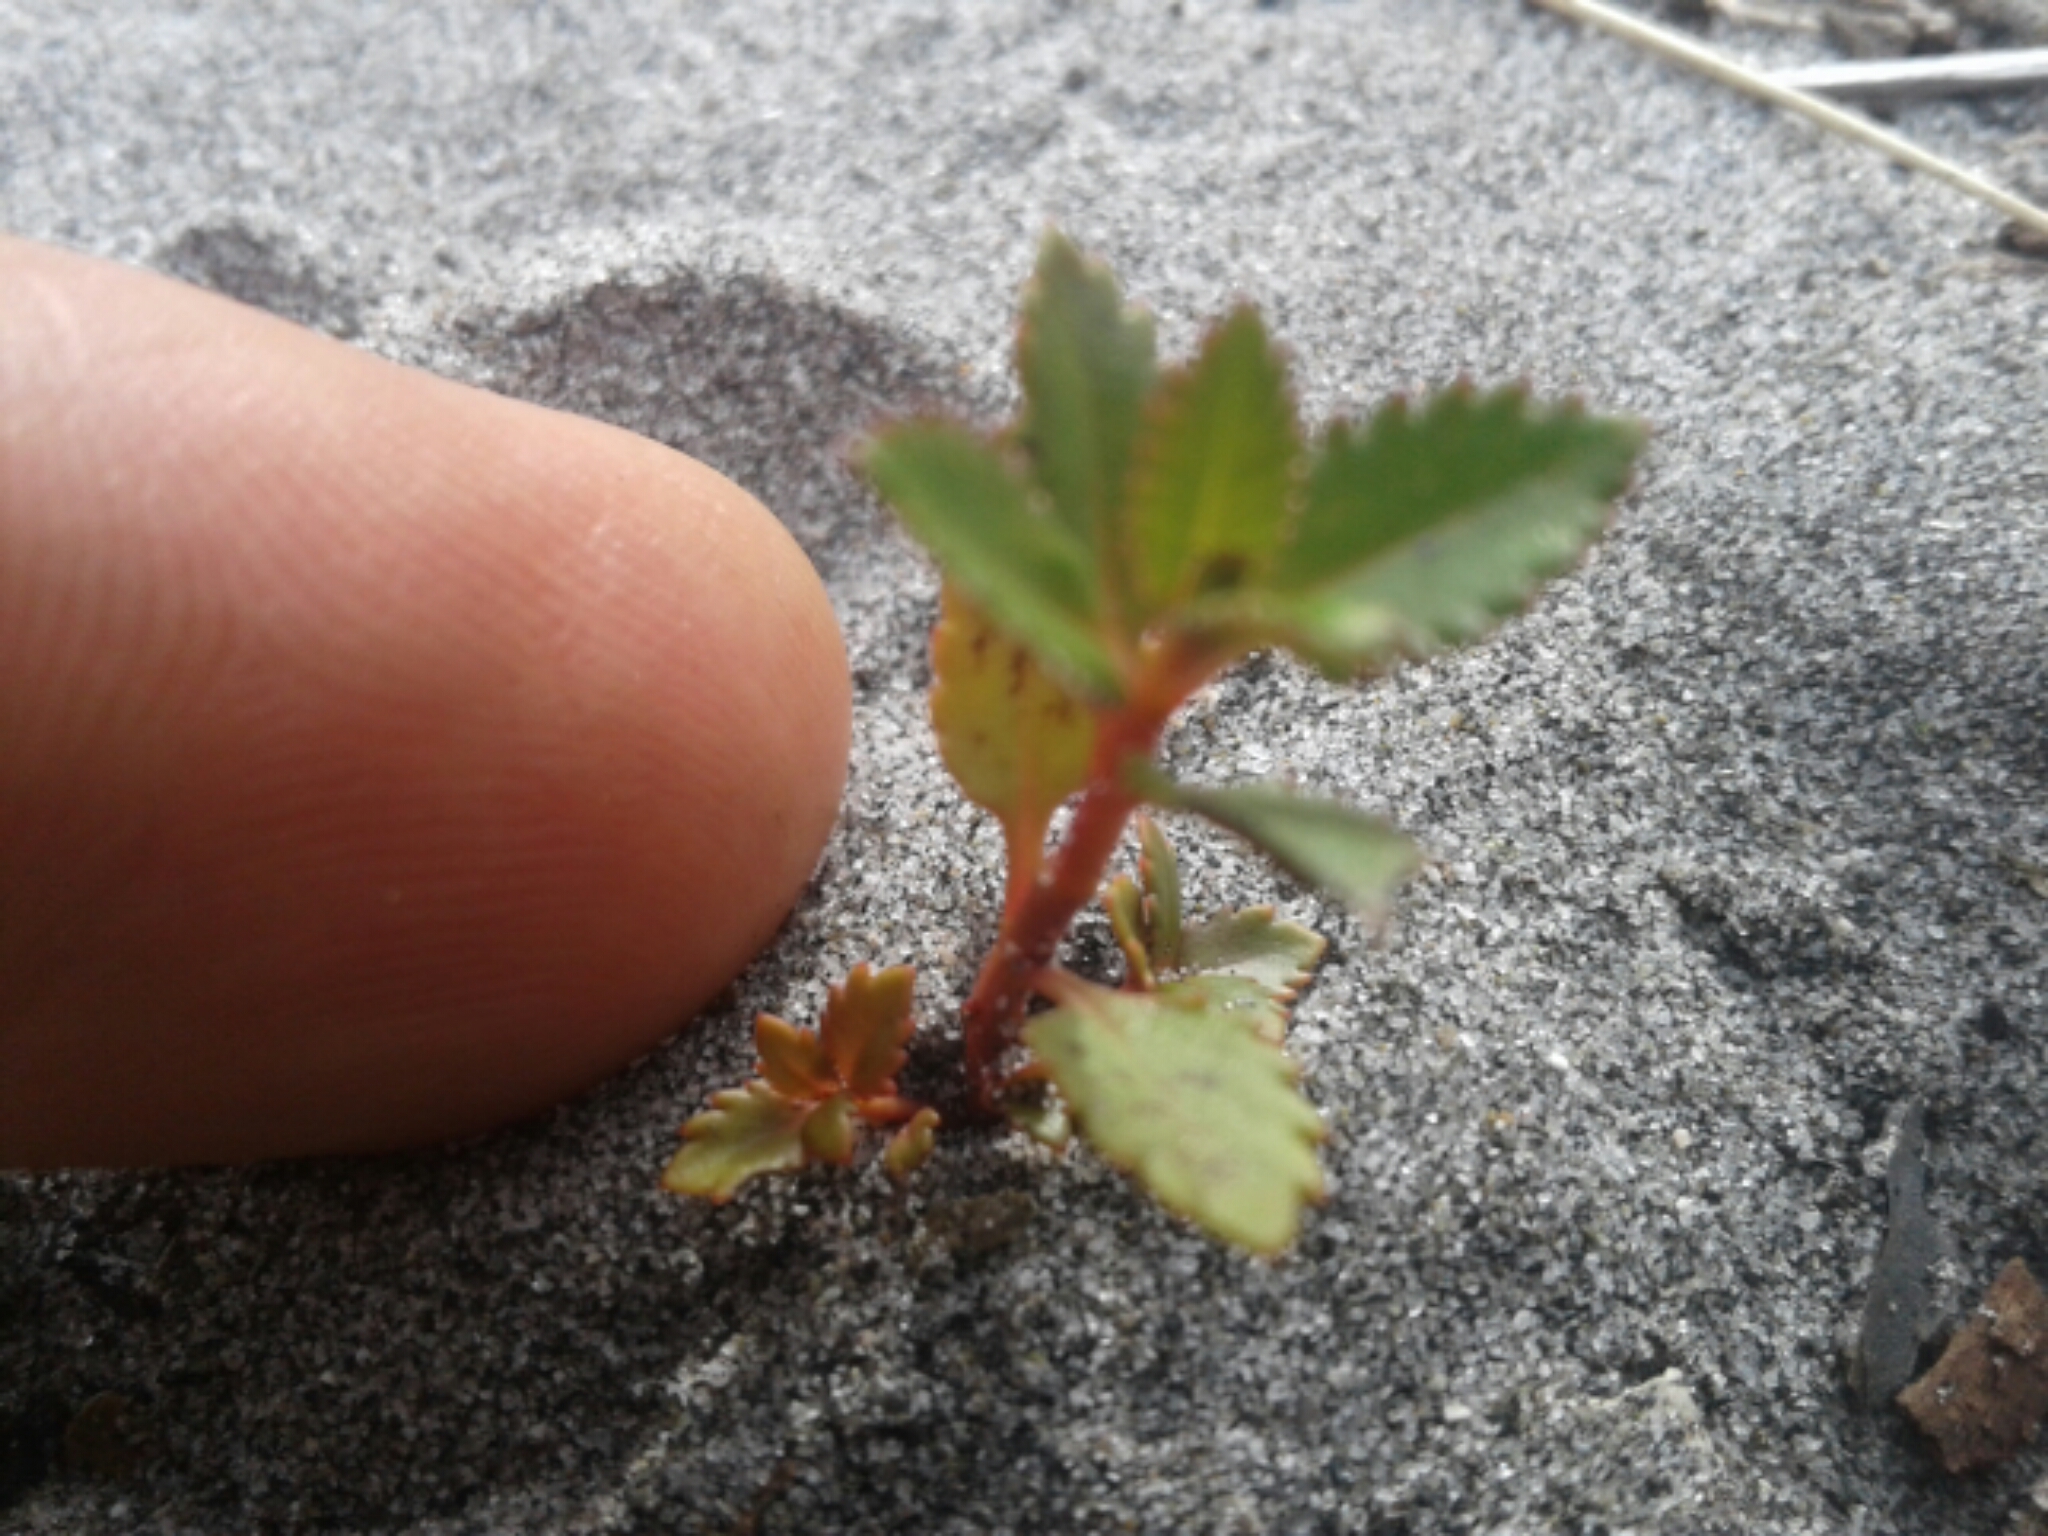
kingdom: Plantae
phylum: Tracheophyta
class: Magnoliopsida
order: Saxifragales
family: Haloragaceae
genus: Haloragis
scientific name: Haloragis erecta
